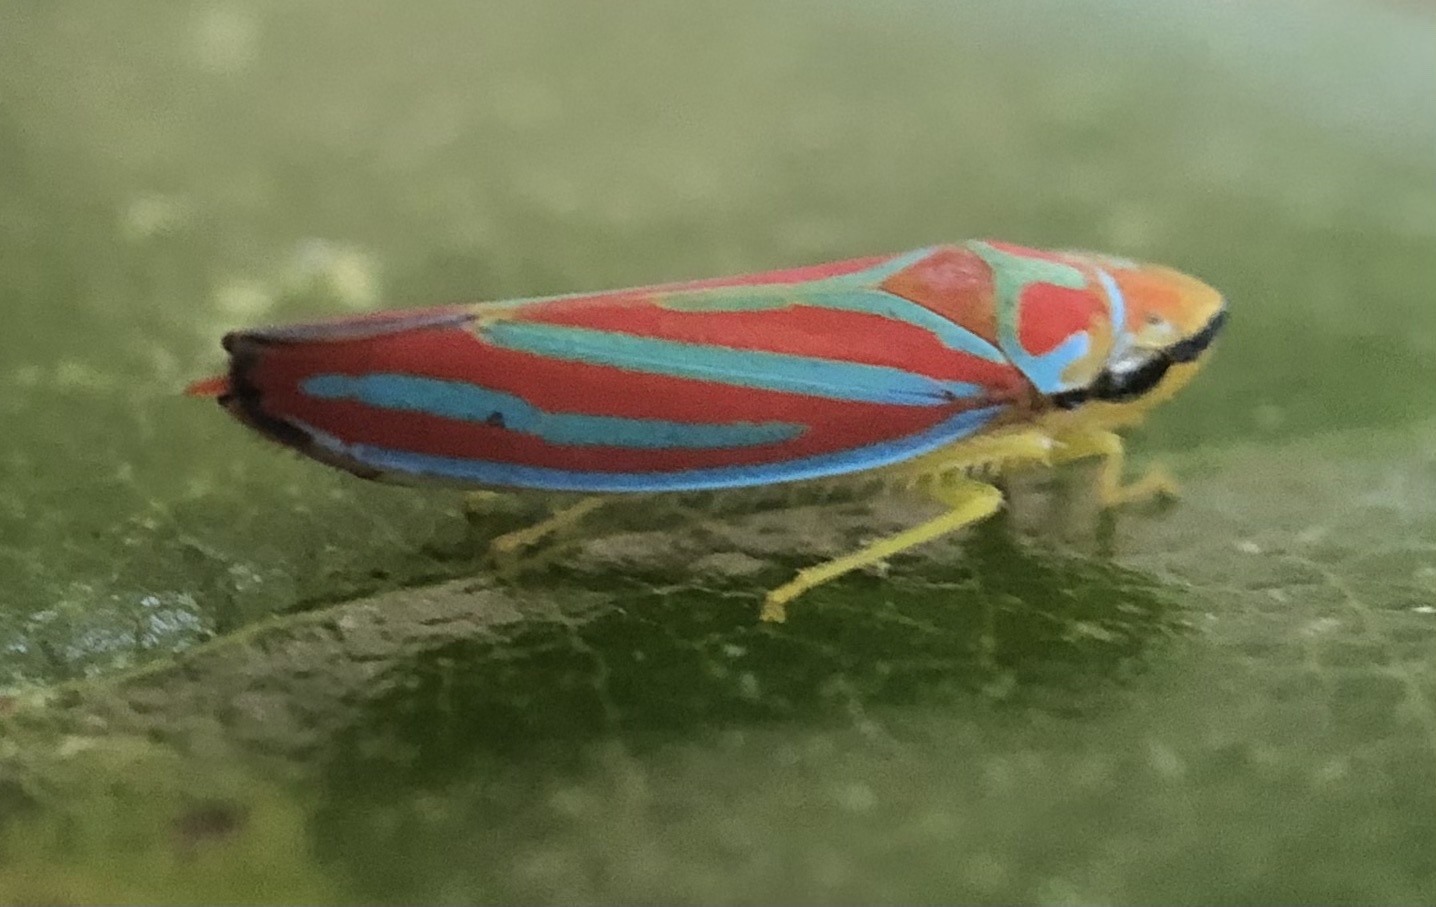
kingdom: Animalia
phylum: Arthropoda
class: Insecta
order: Hemiptera
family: Cicadellidae
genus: Graphocephala
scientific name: Graphocephala coccinea
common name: Candy-striped leafhopper
